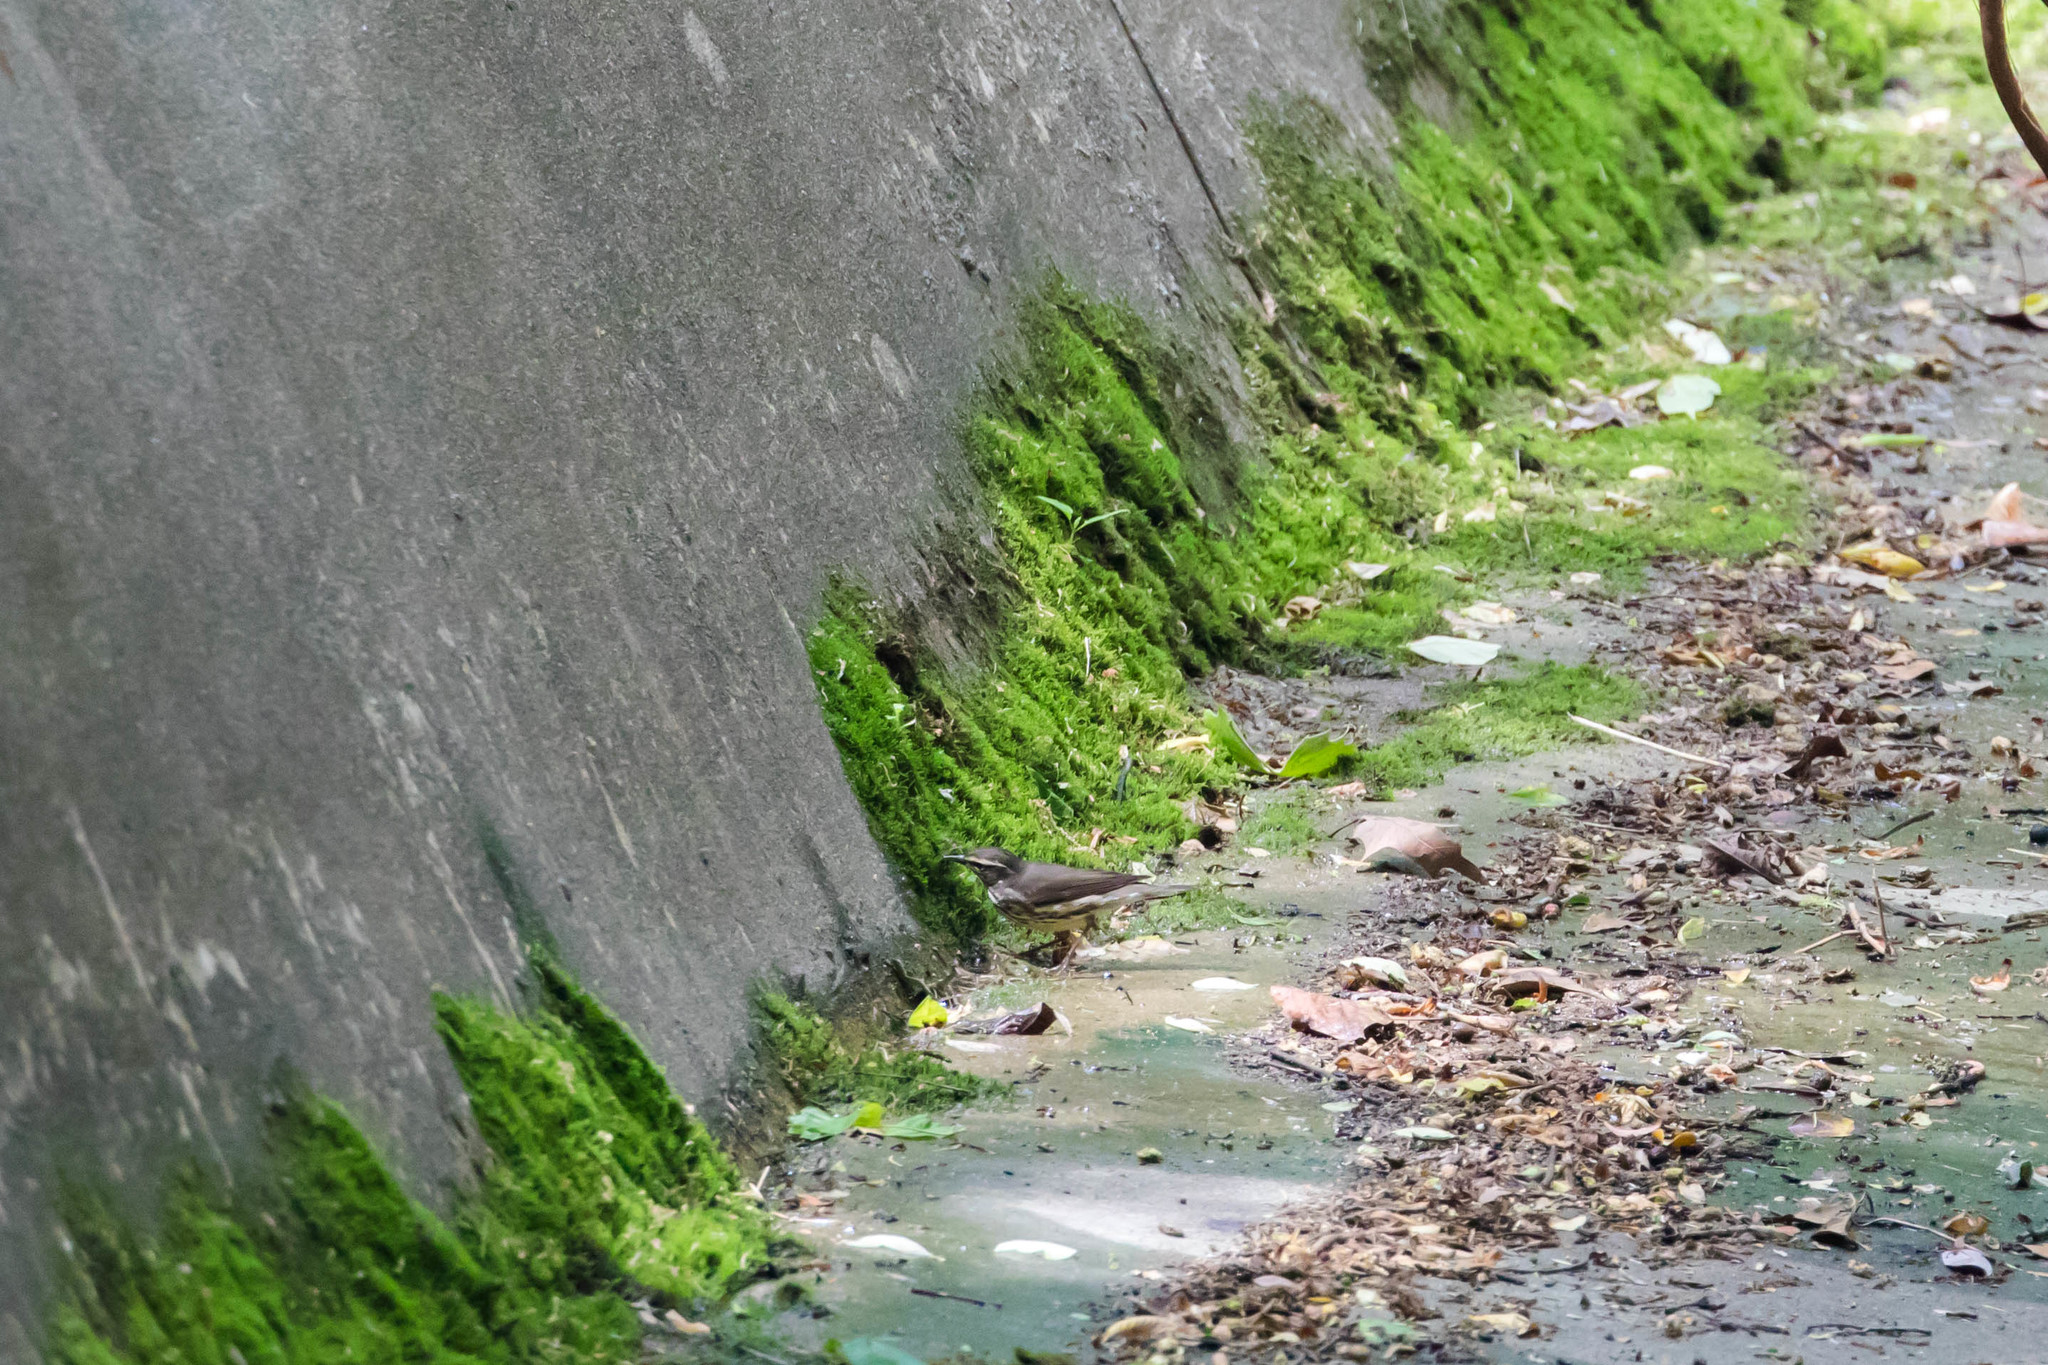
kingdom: Animalia
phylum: Chordata
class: Aves
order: Passeriformes
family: Parulidae
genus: Parkesia
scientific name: Parkesia motacilla
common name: Louisiana waterthrush
